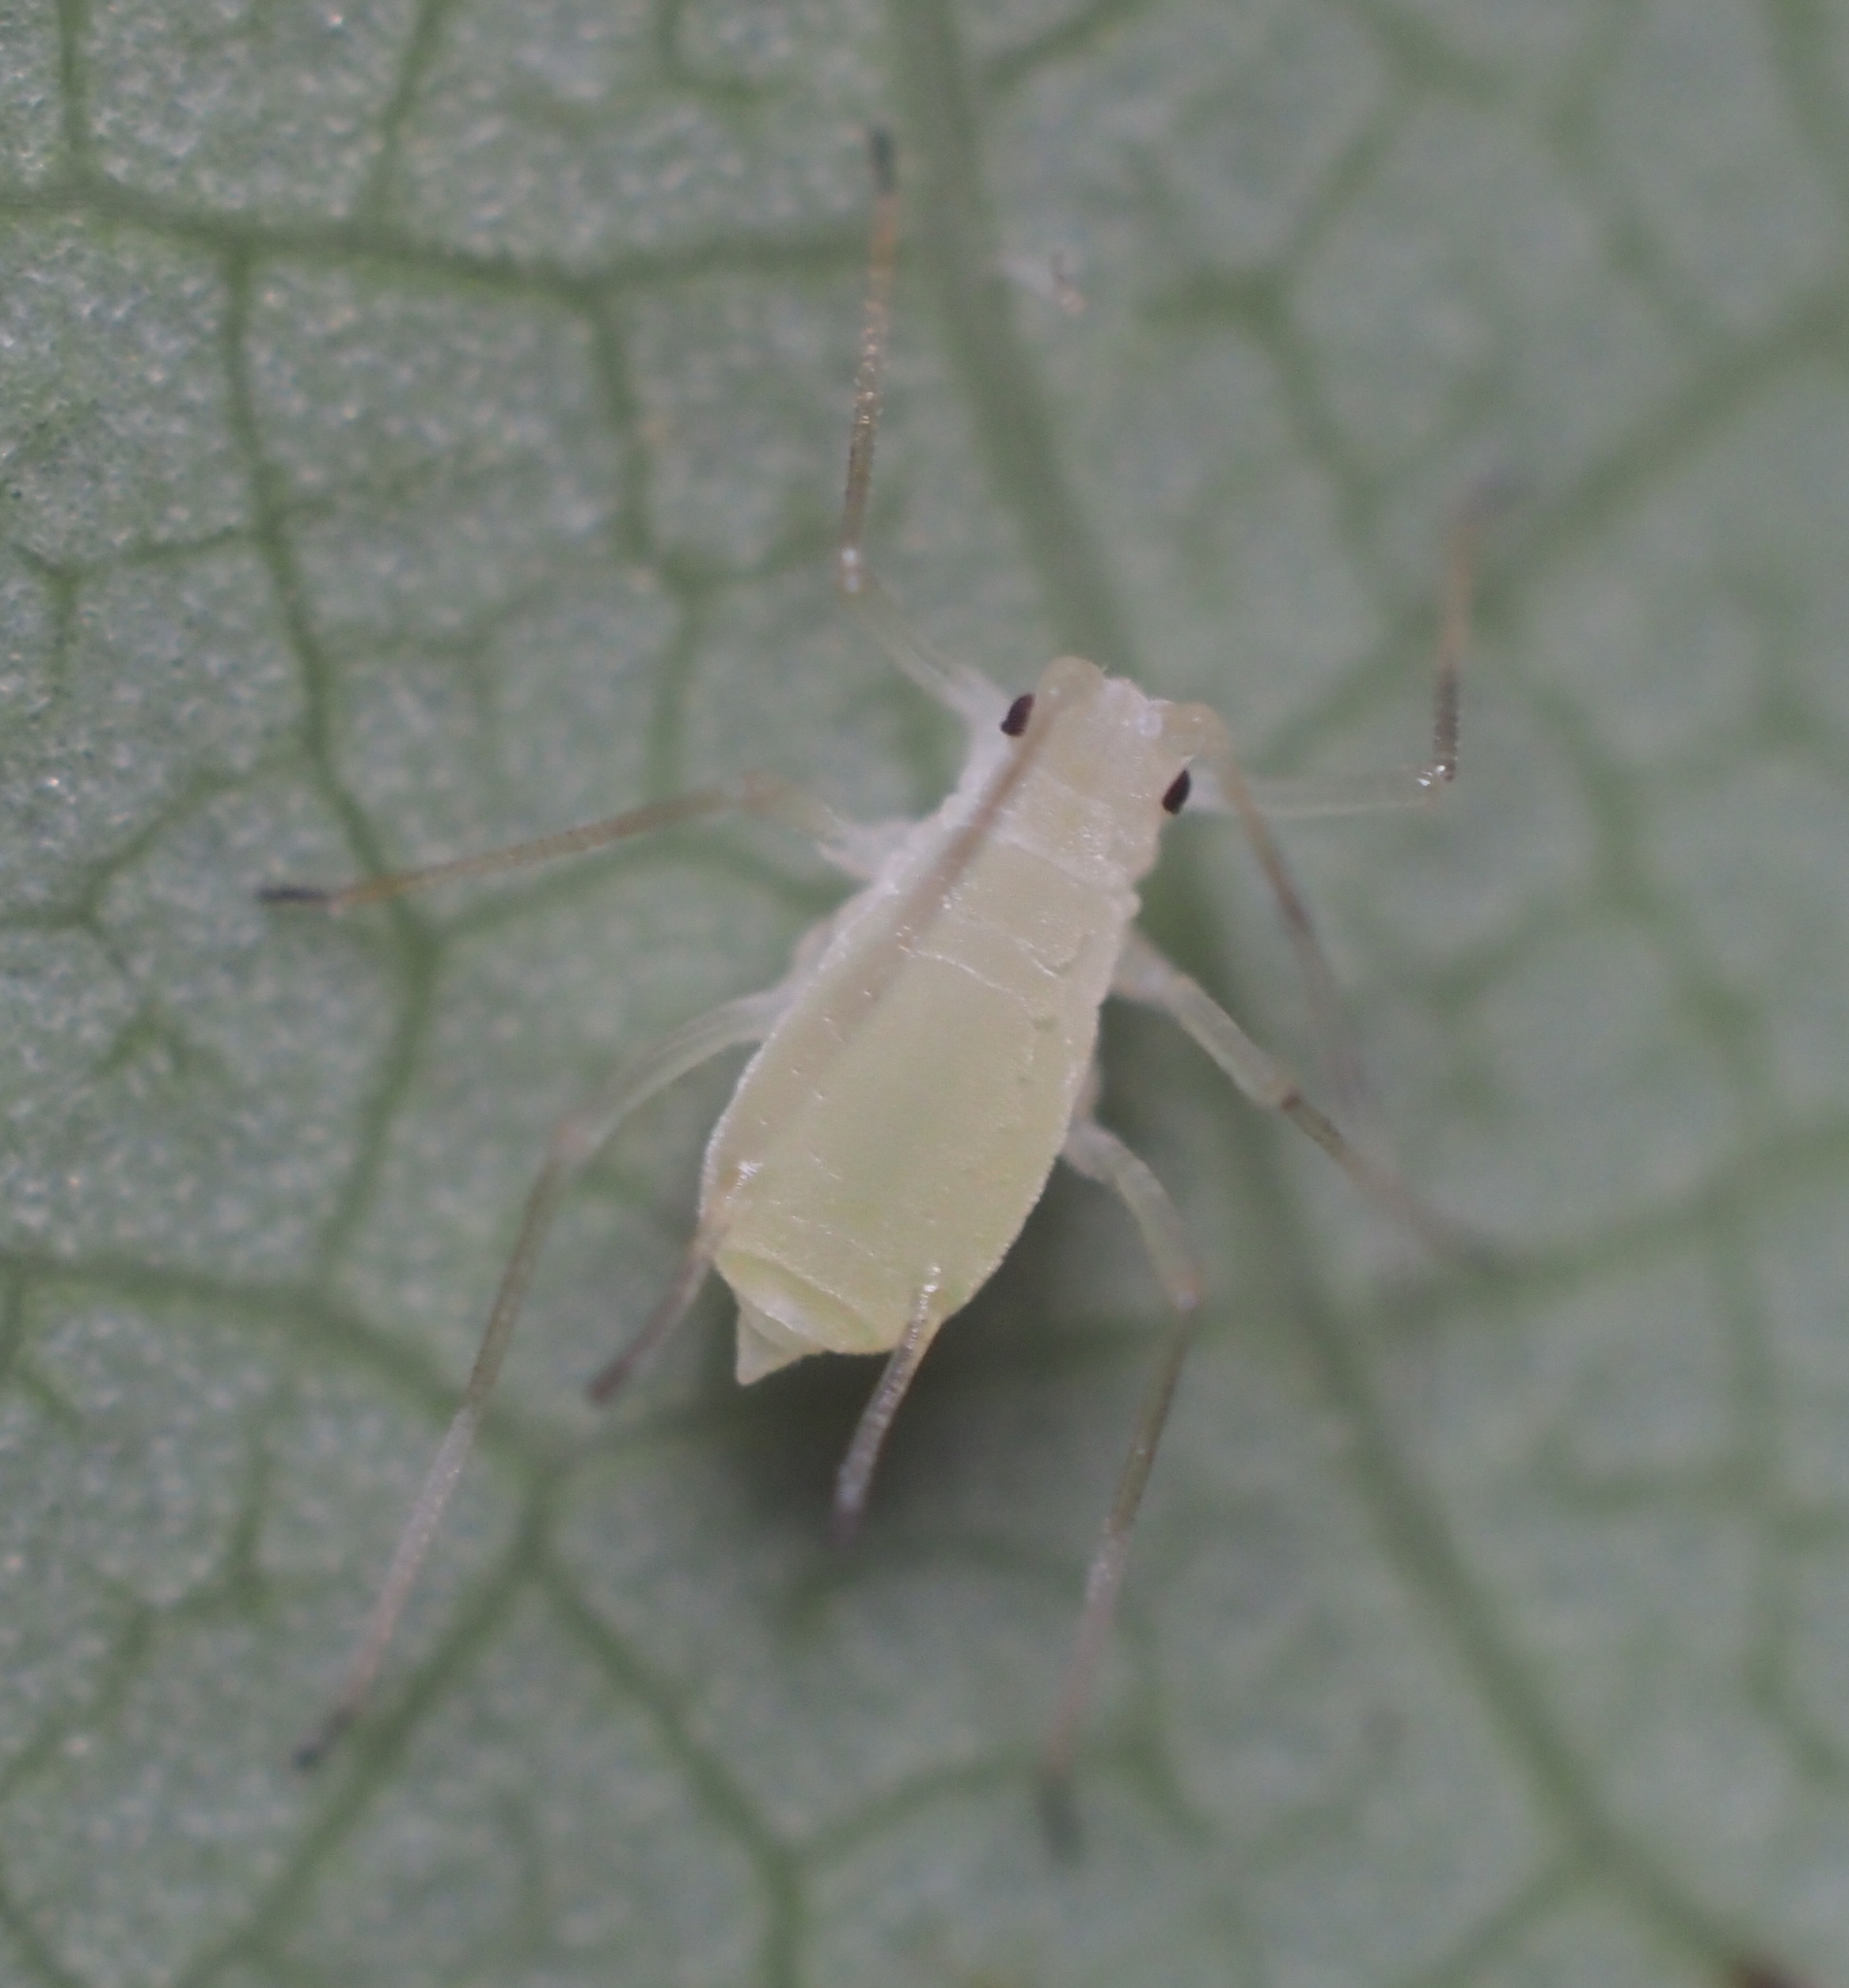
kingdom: Animalia
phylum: Arthropoda
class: Insecta
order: Hemiptera
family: Aphididae
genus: Illinoia
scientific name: Illinoia liriodendri
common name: Tuliptree aphid
